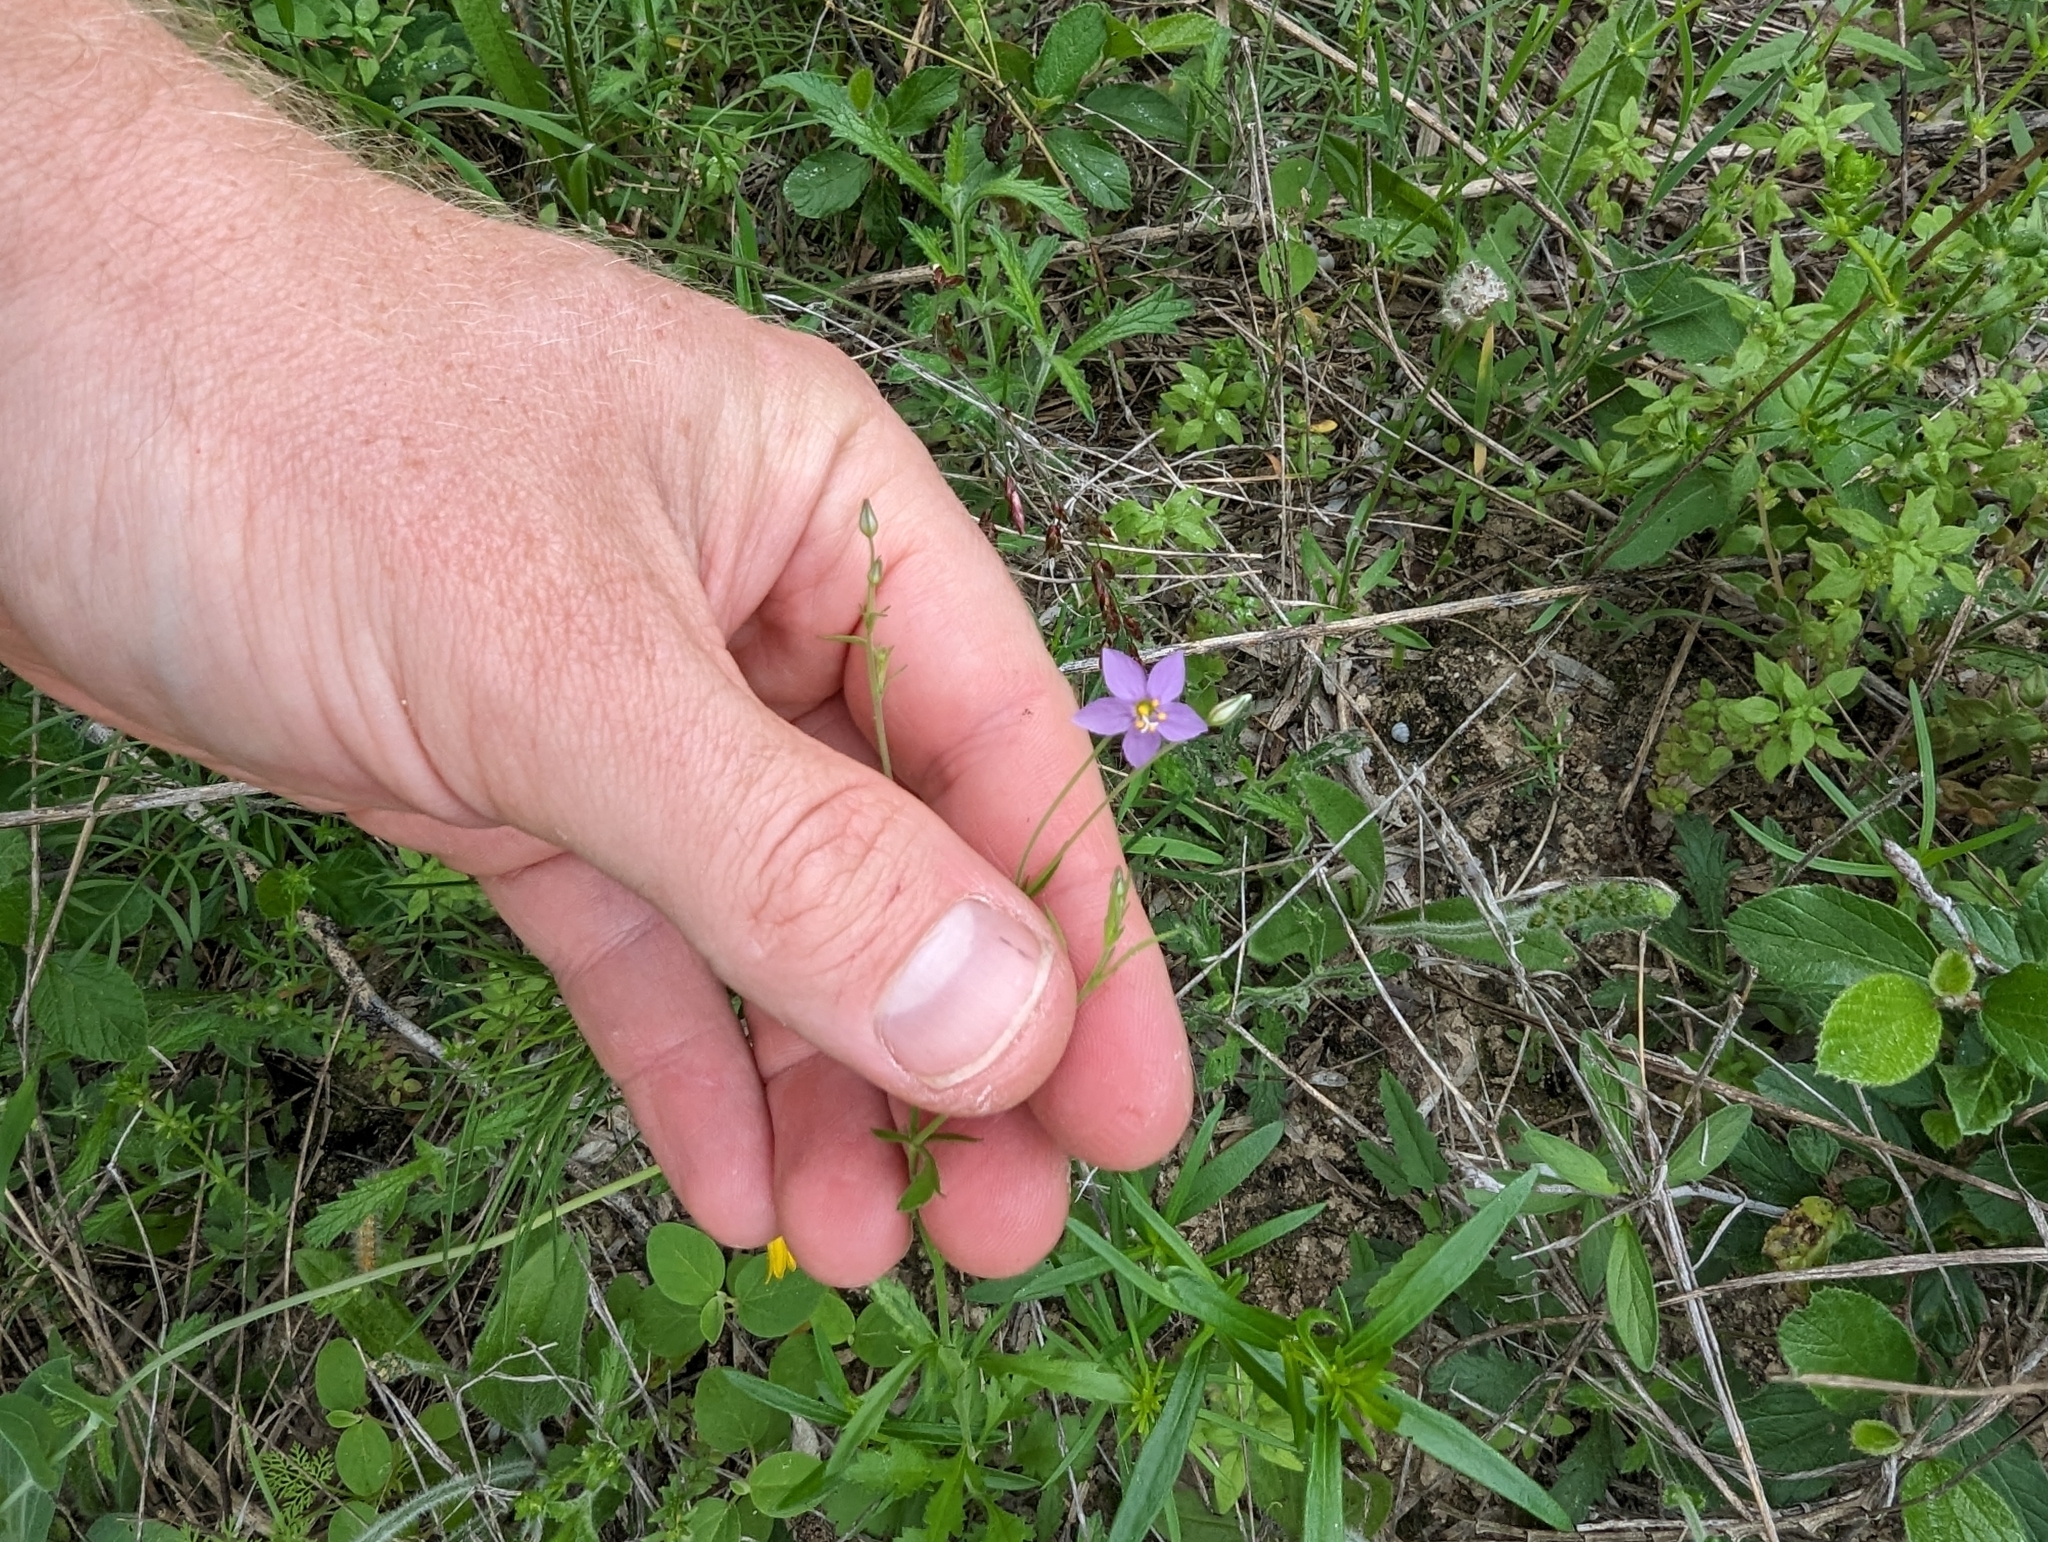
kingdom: Plantae
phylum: Tracheophyta
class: Magnoliopsida
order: Ericales
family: Polemoniaceae
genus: Giliastrum
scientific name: Giliastrum incisum
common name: Splitleaf gilia
